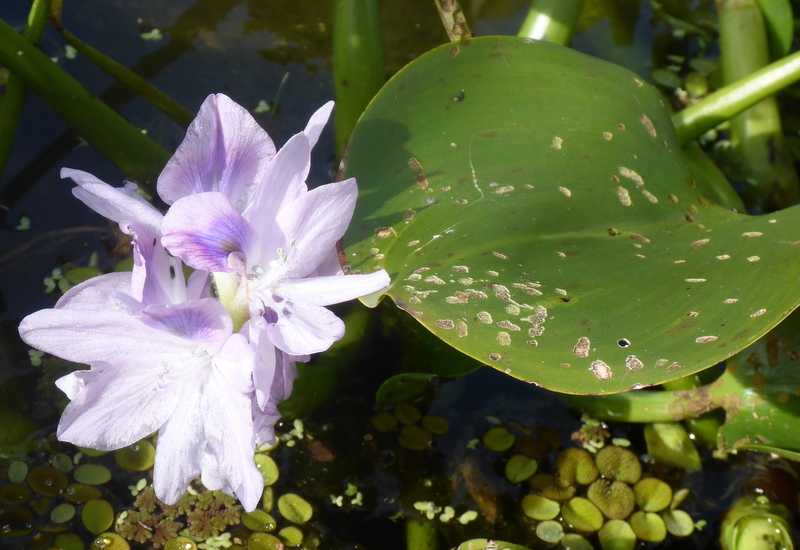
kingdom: Plantae
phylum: Tracheophyta
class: Liliopsida
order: Commelinales
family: Pontederiaceae
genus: Pontederia
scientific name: Pontederia crassipes
